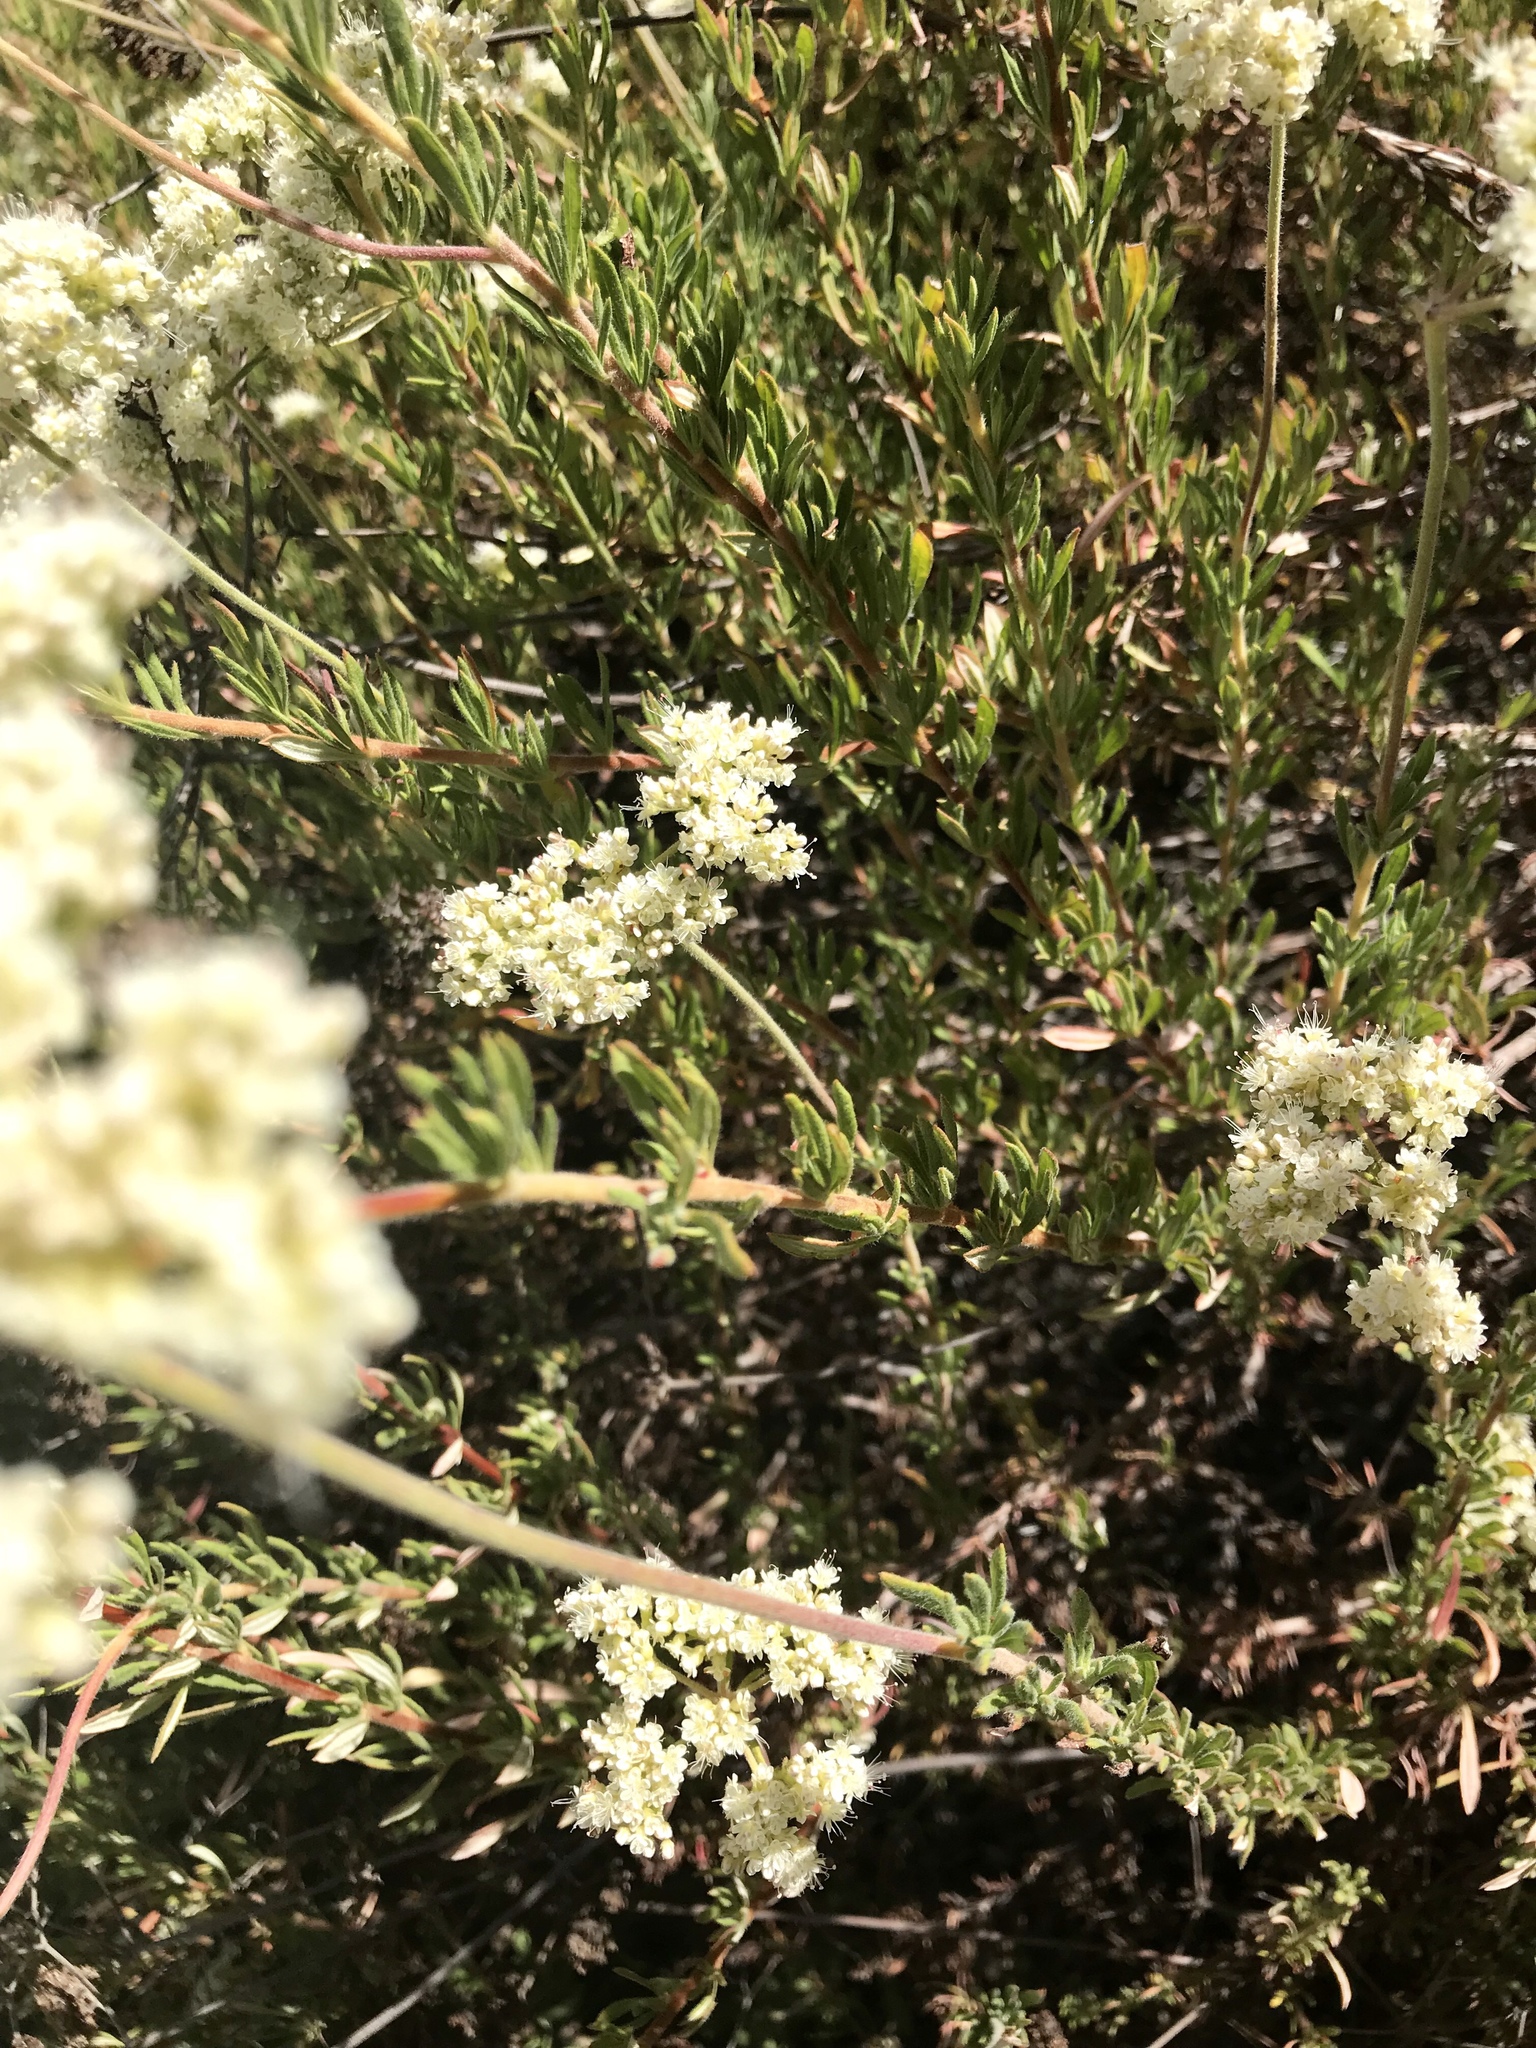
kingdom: Plantae
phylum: Tracheophyta
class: Magnoliopsida
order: Caryophyllales
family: Polygonaceae
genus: Eriogonum
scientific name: Eriogonum fasciculatum
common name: California wild buckwheat
